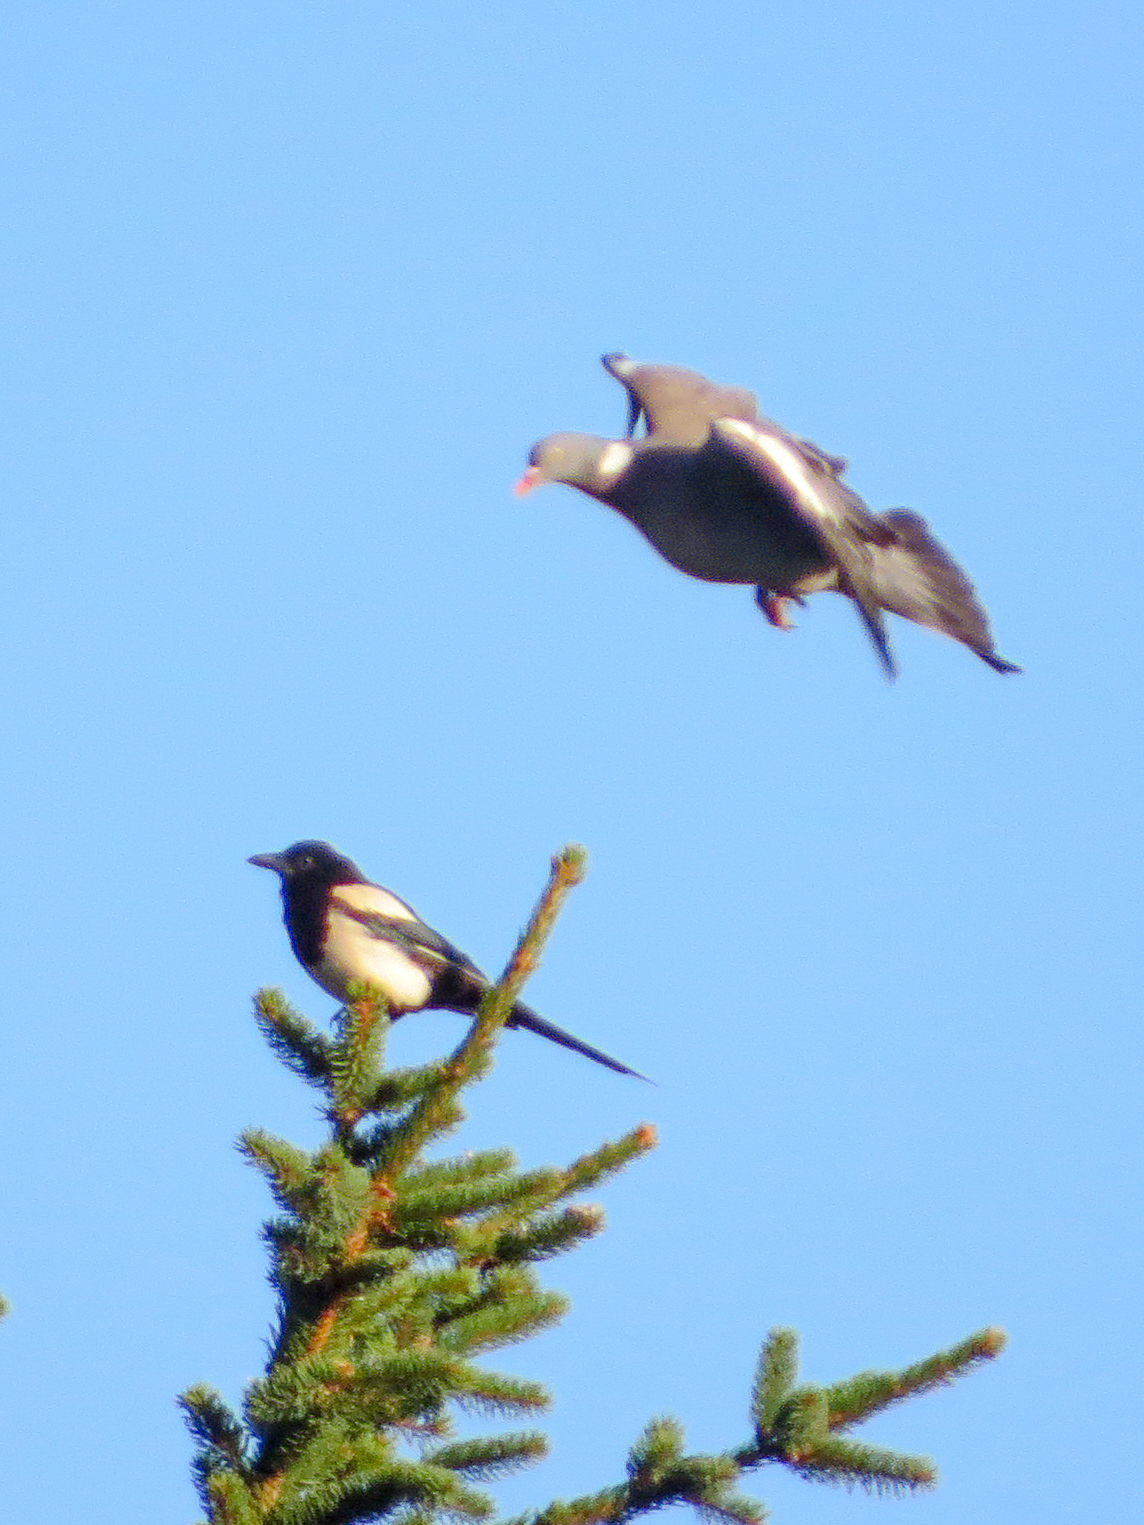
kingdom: Animalia
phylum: Chordata
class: Aves
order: Passeriformes
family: Corvidae
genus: Pica
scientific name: Pica pica
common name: Eurasian magpie
